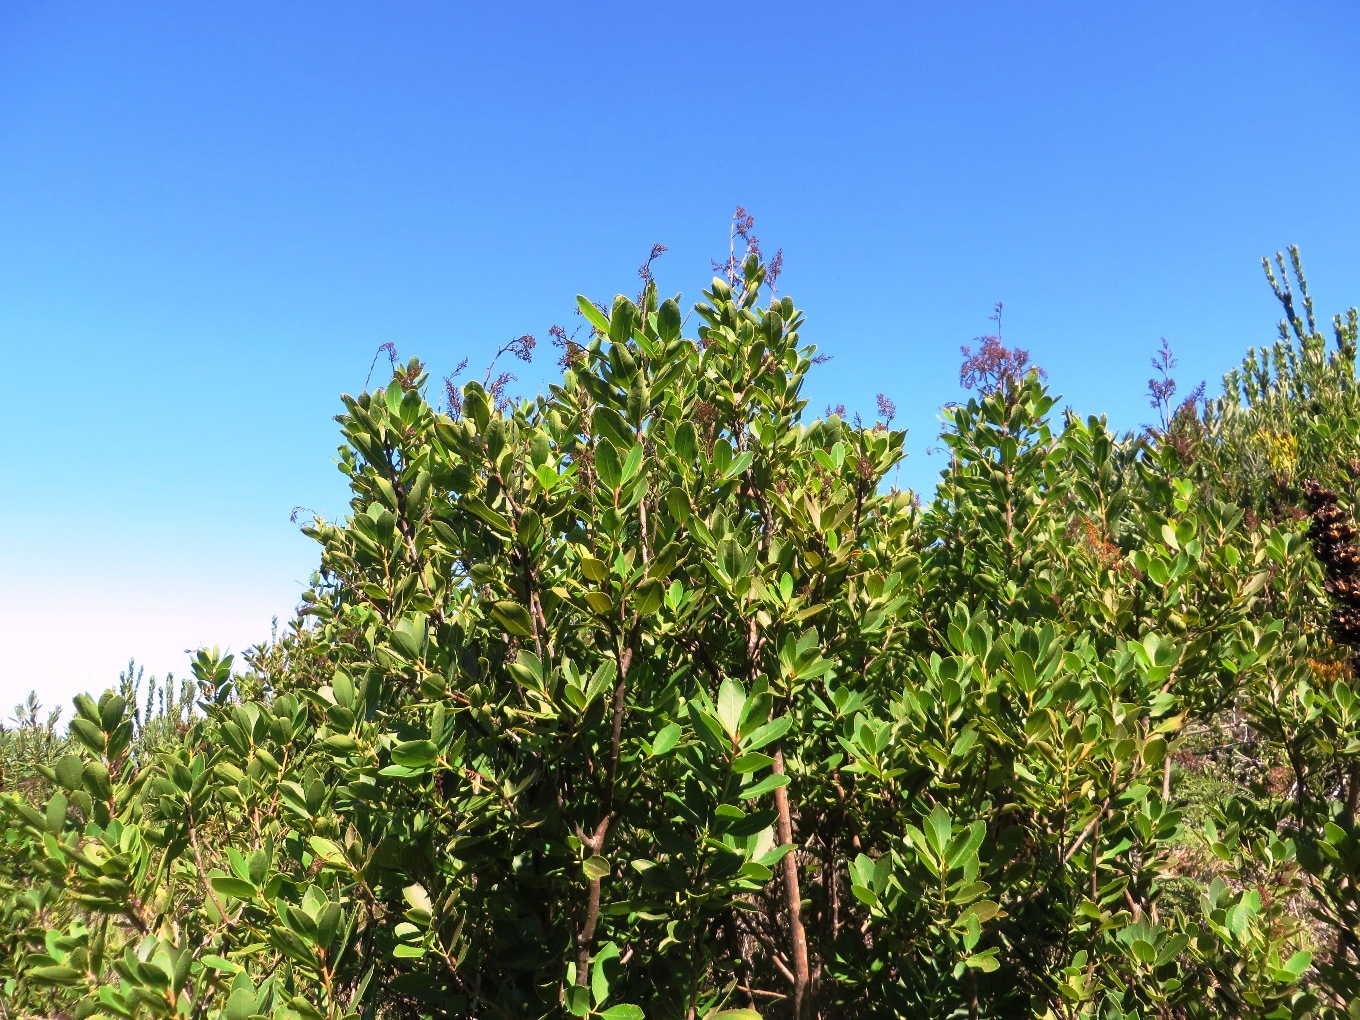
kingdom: Plantae
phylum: Tracheophyta
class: Magnoliopsida
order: Sapindales
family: Anacardiaceae
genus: Laurophyllus
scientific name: Laurophyllus capensis
